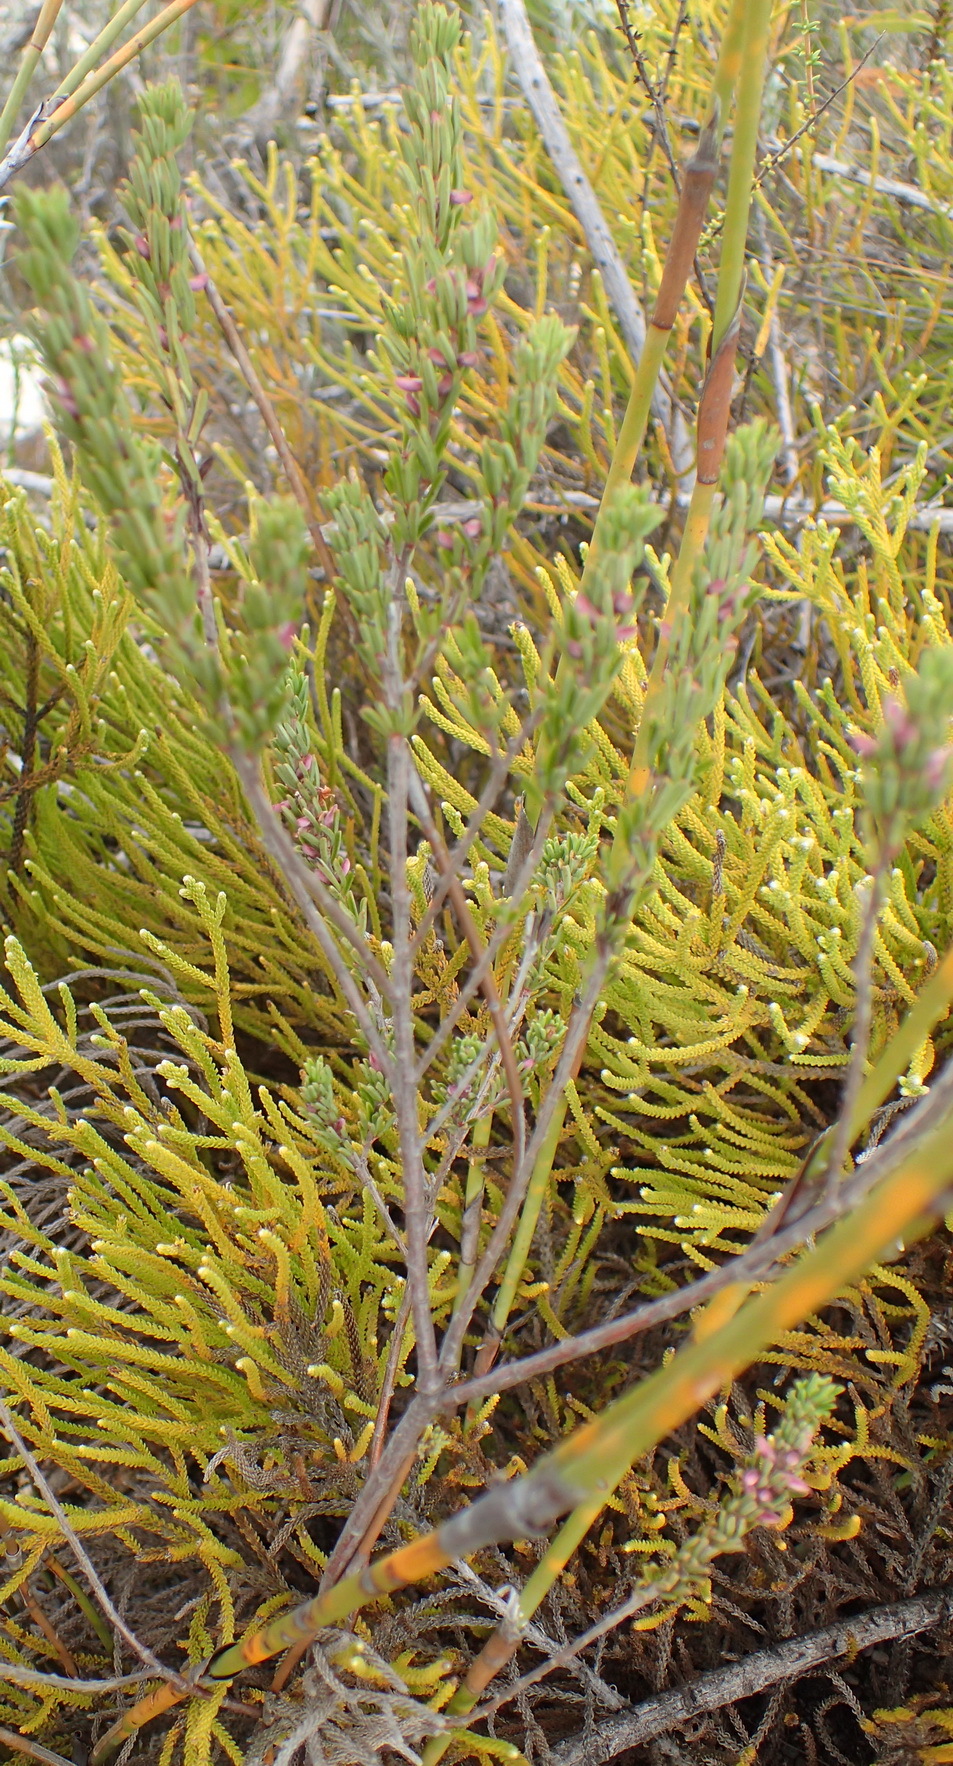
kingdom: Plantae
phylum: Tracheophyta
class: Magnoliopsida
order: Fabales
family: Fabaceae
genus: Indigofera
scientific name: Indigofera pappei
